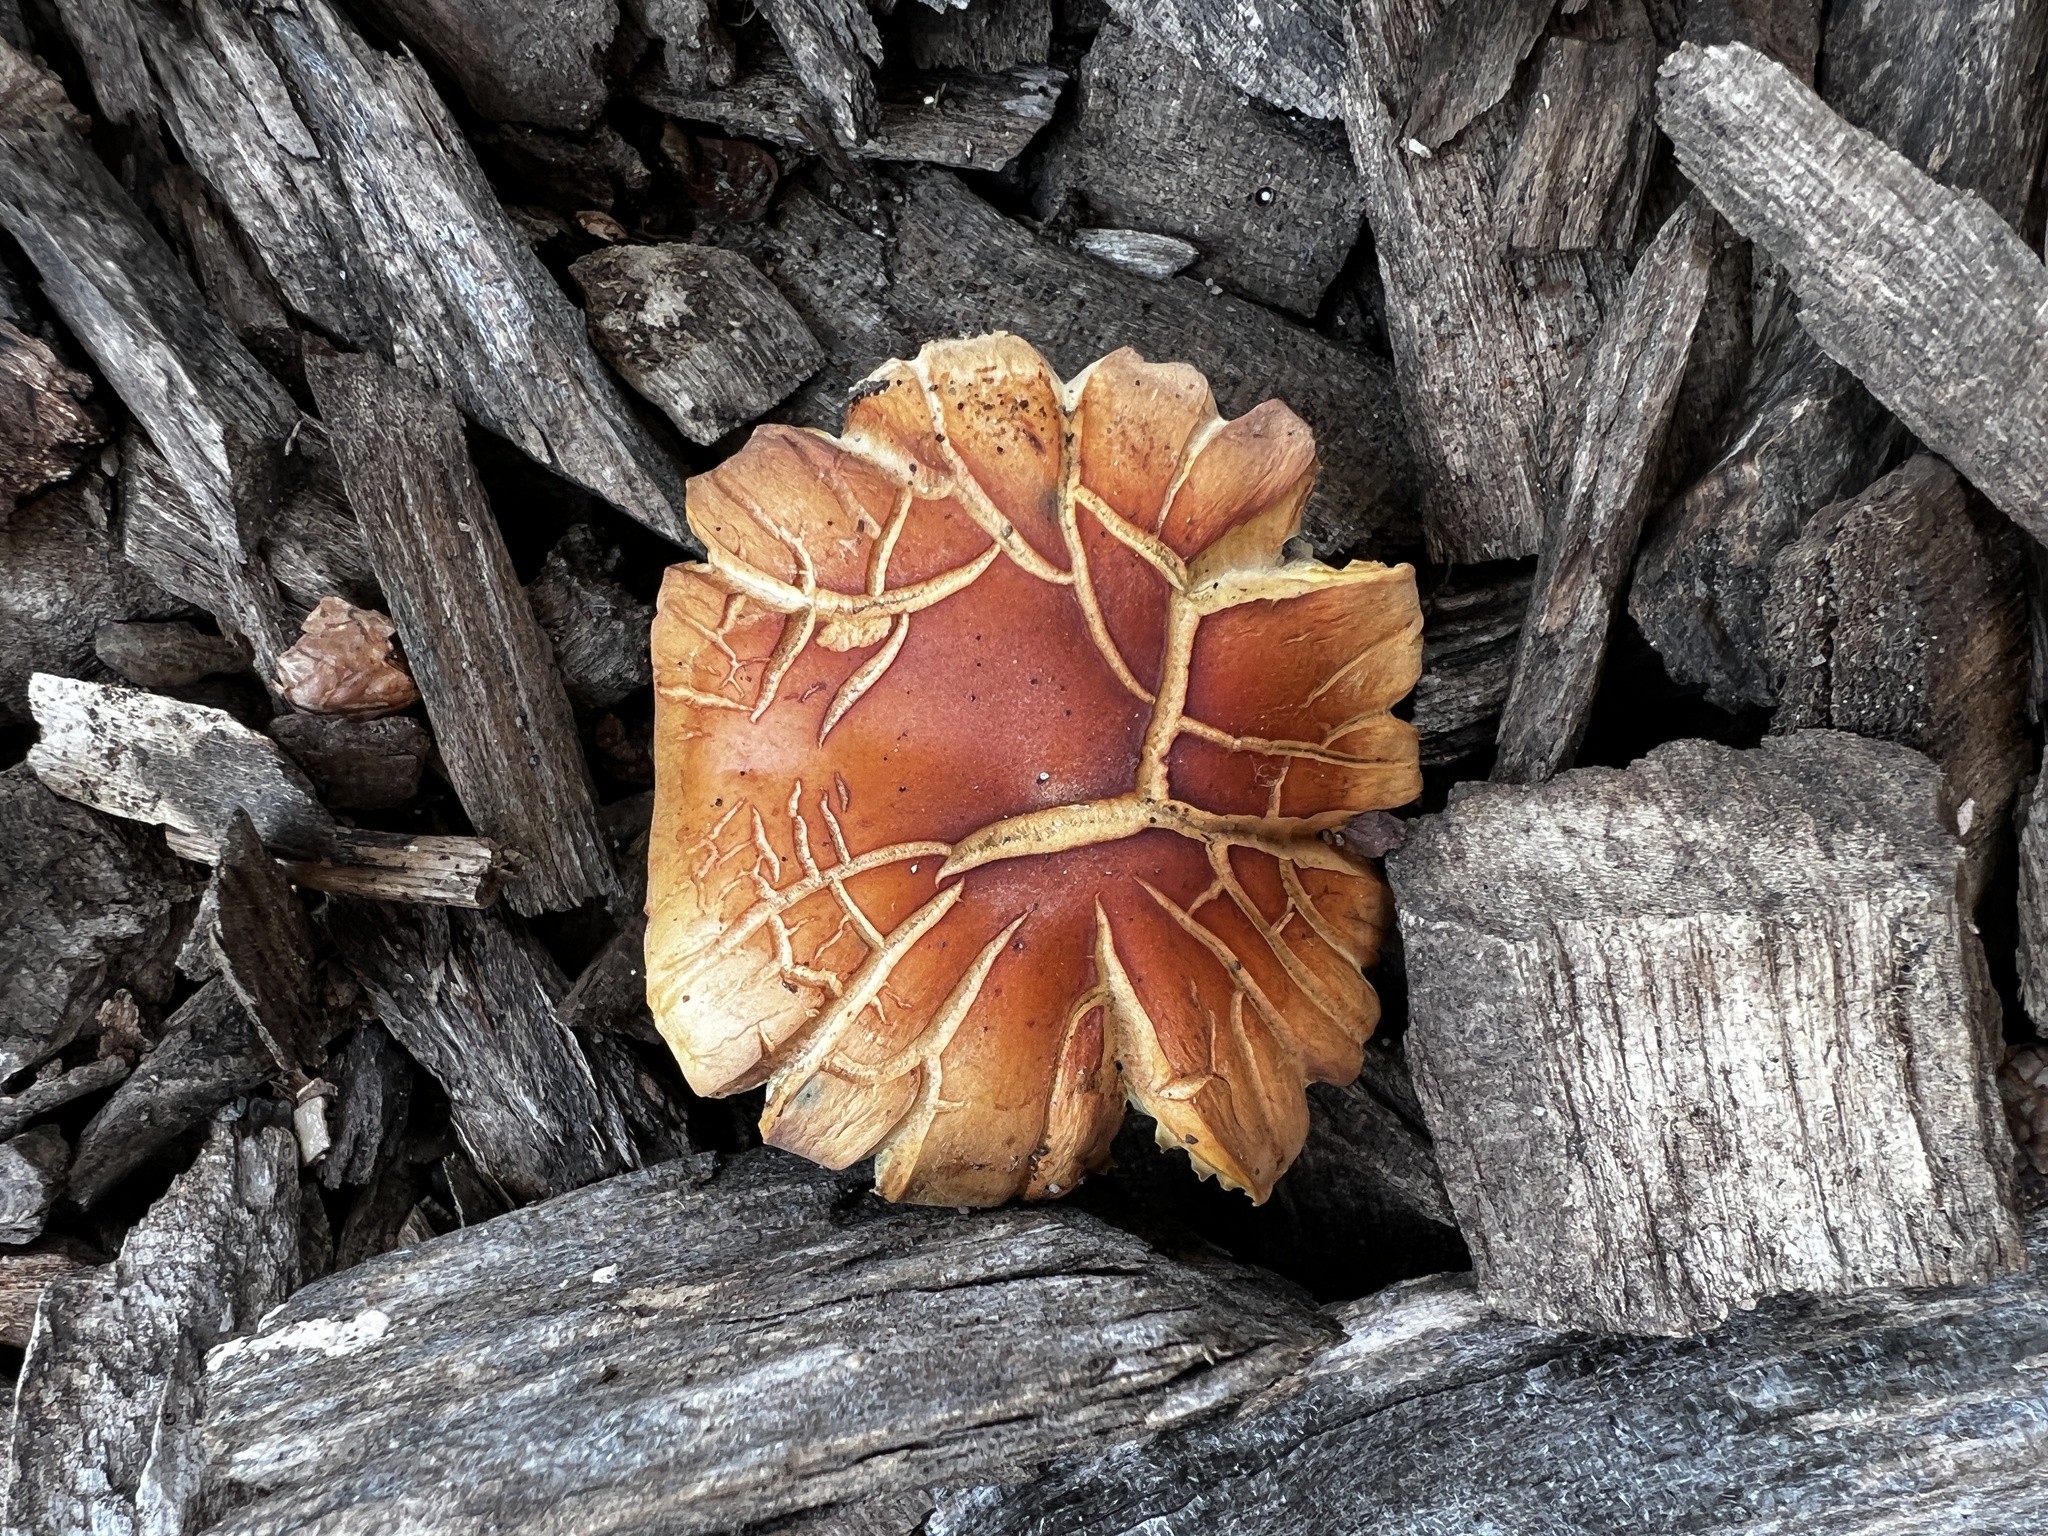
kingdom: Fungi
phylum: Basidiomycota
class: Agaricomycetes
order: Agaricales
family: Strophariaceae
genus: Hypholoma
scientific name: Hypholoma lateritium
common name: Brick caps
